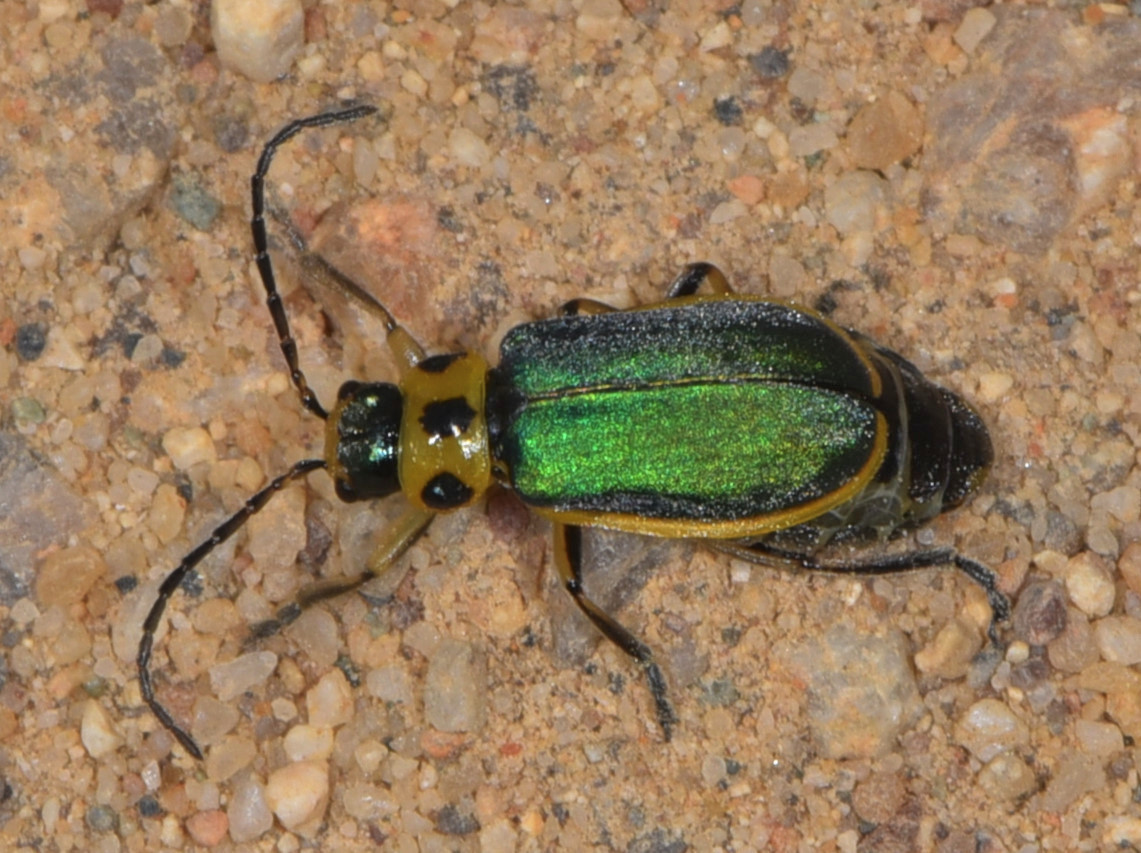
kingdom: Animalia
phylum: Arthropoda
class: Insecta
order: Coleoptera
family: Chrysomelidae
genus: Trirhabda
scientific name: Trirhabda flavolimbata
